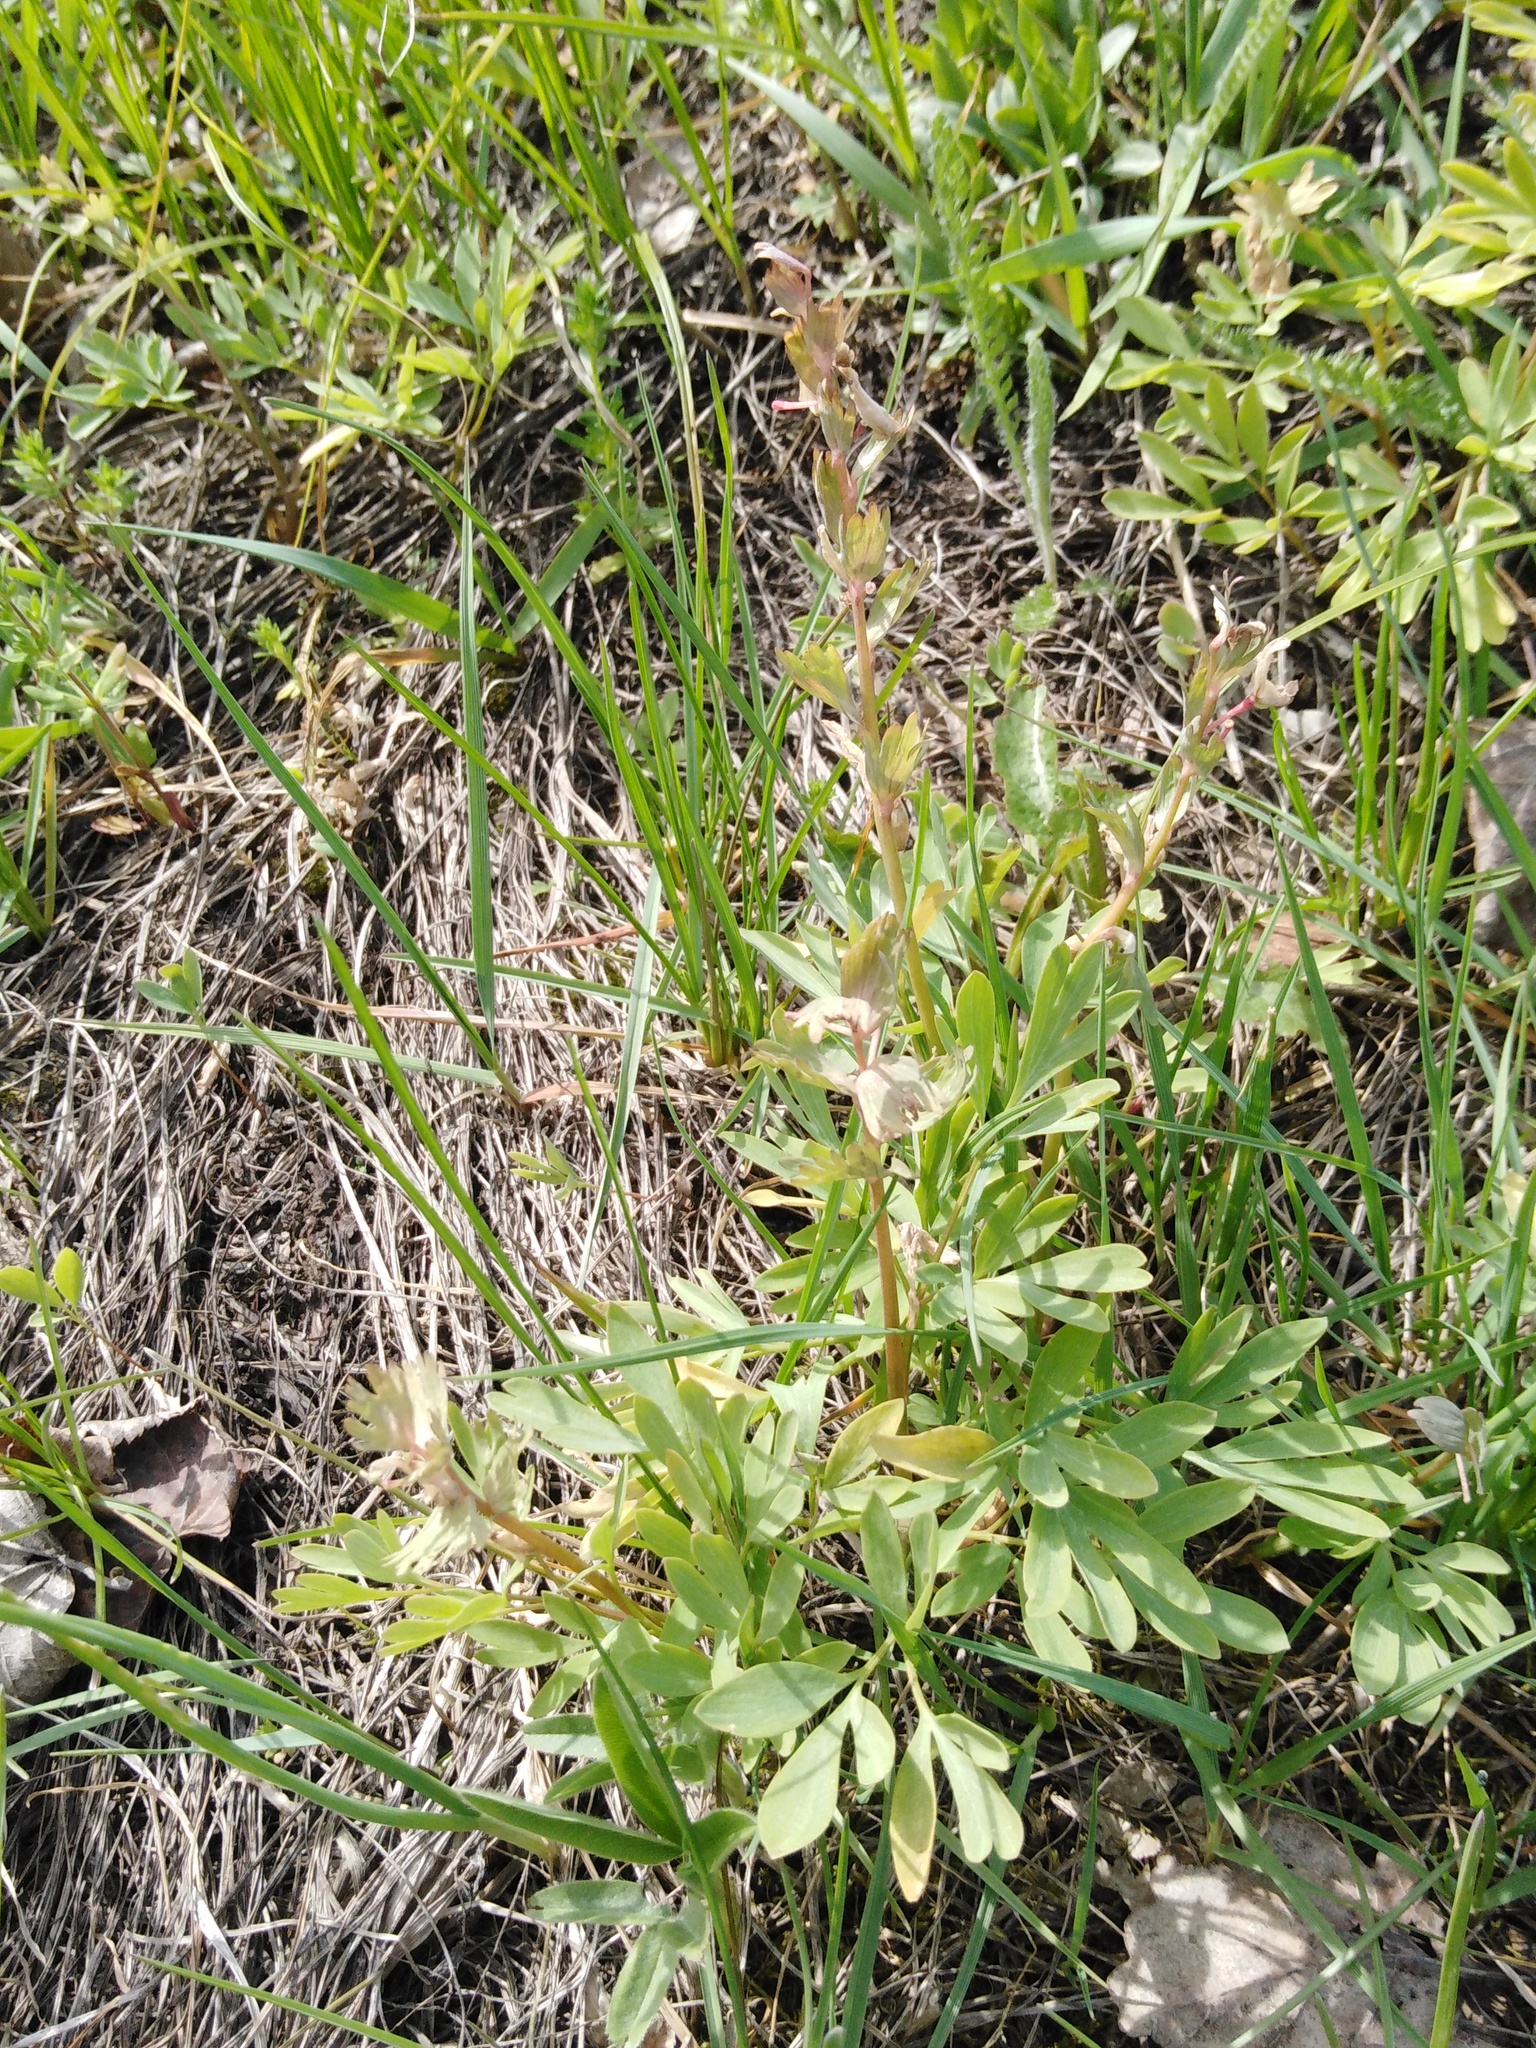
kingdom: Plantae
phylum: Tracheophyta
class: Magnoliopsida
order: Ranunculales
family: Papaveraceae
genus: Corydalis
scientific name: Corydalis solida
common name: Bird-in-a-bush
